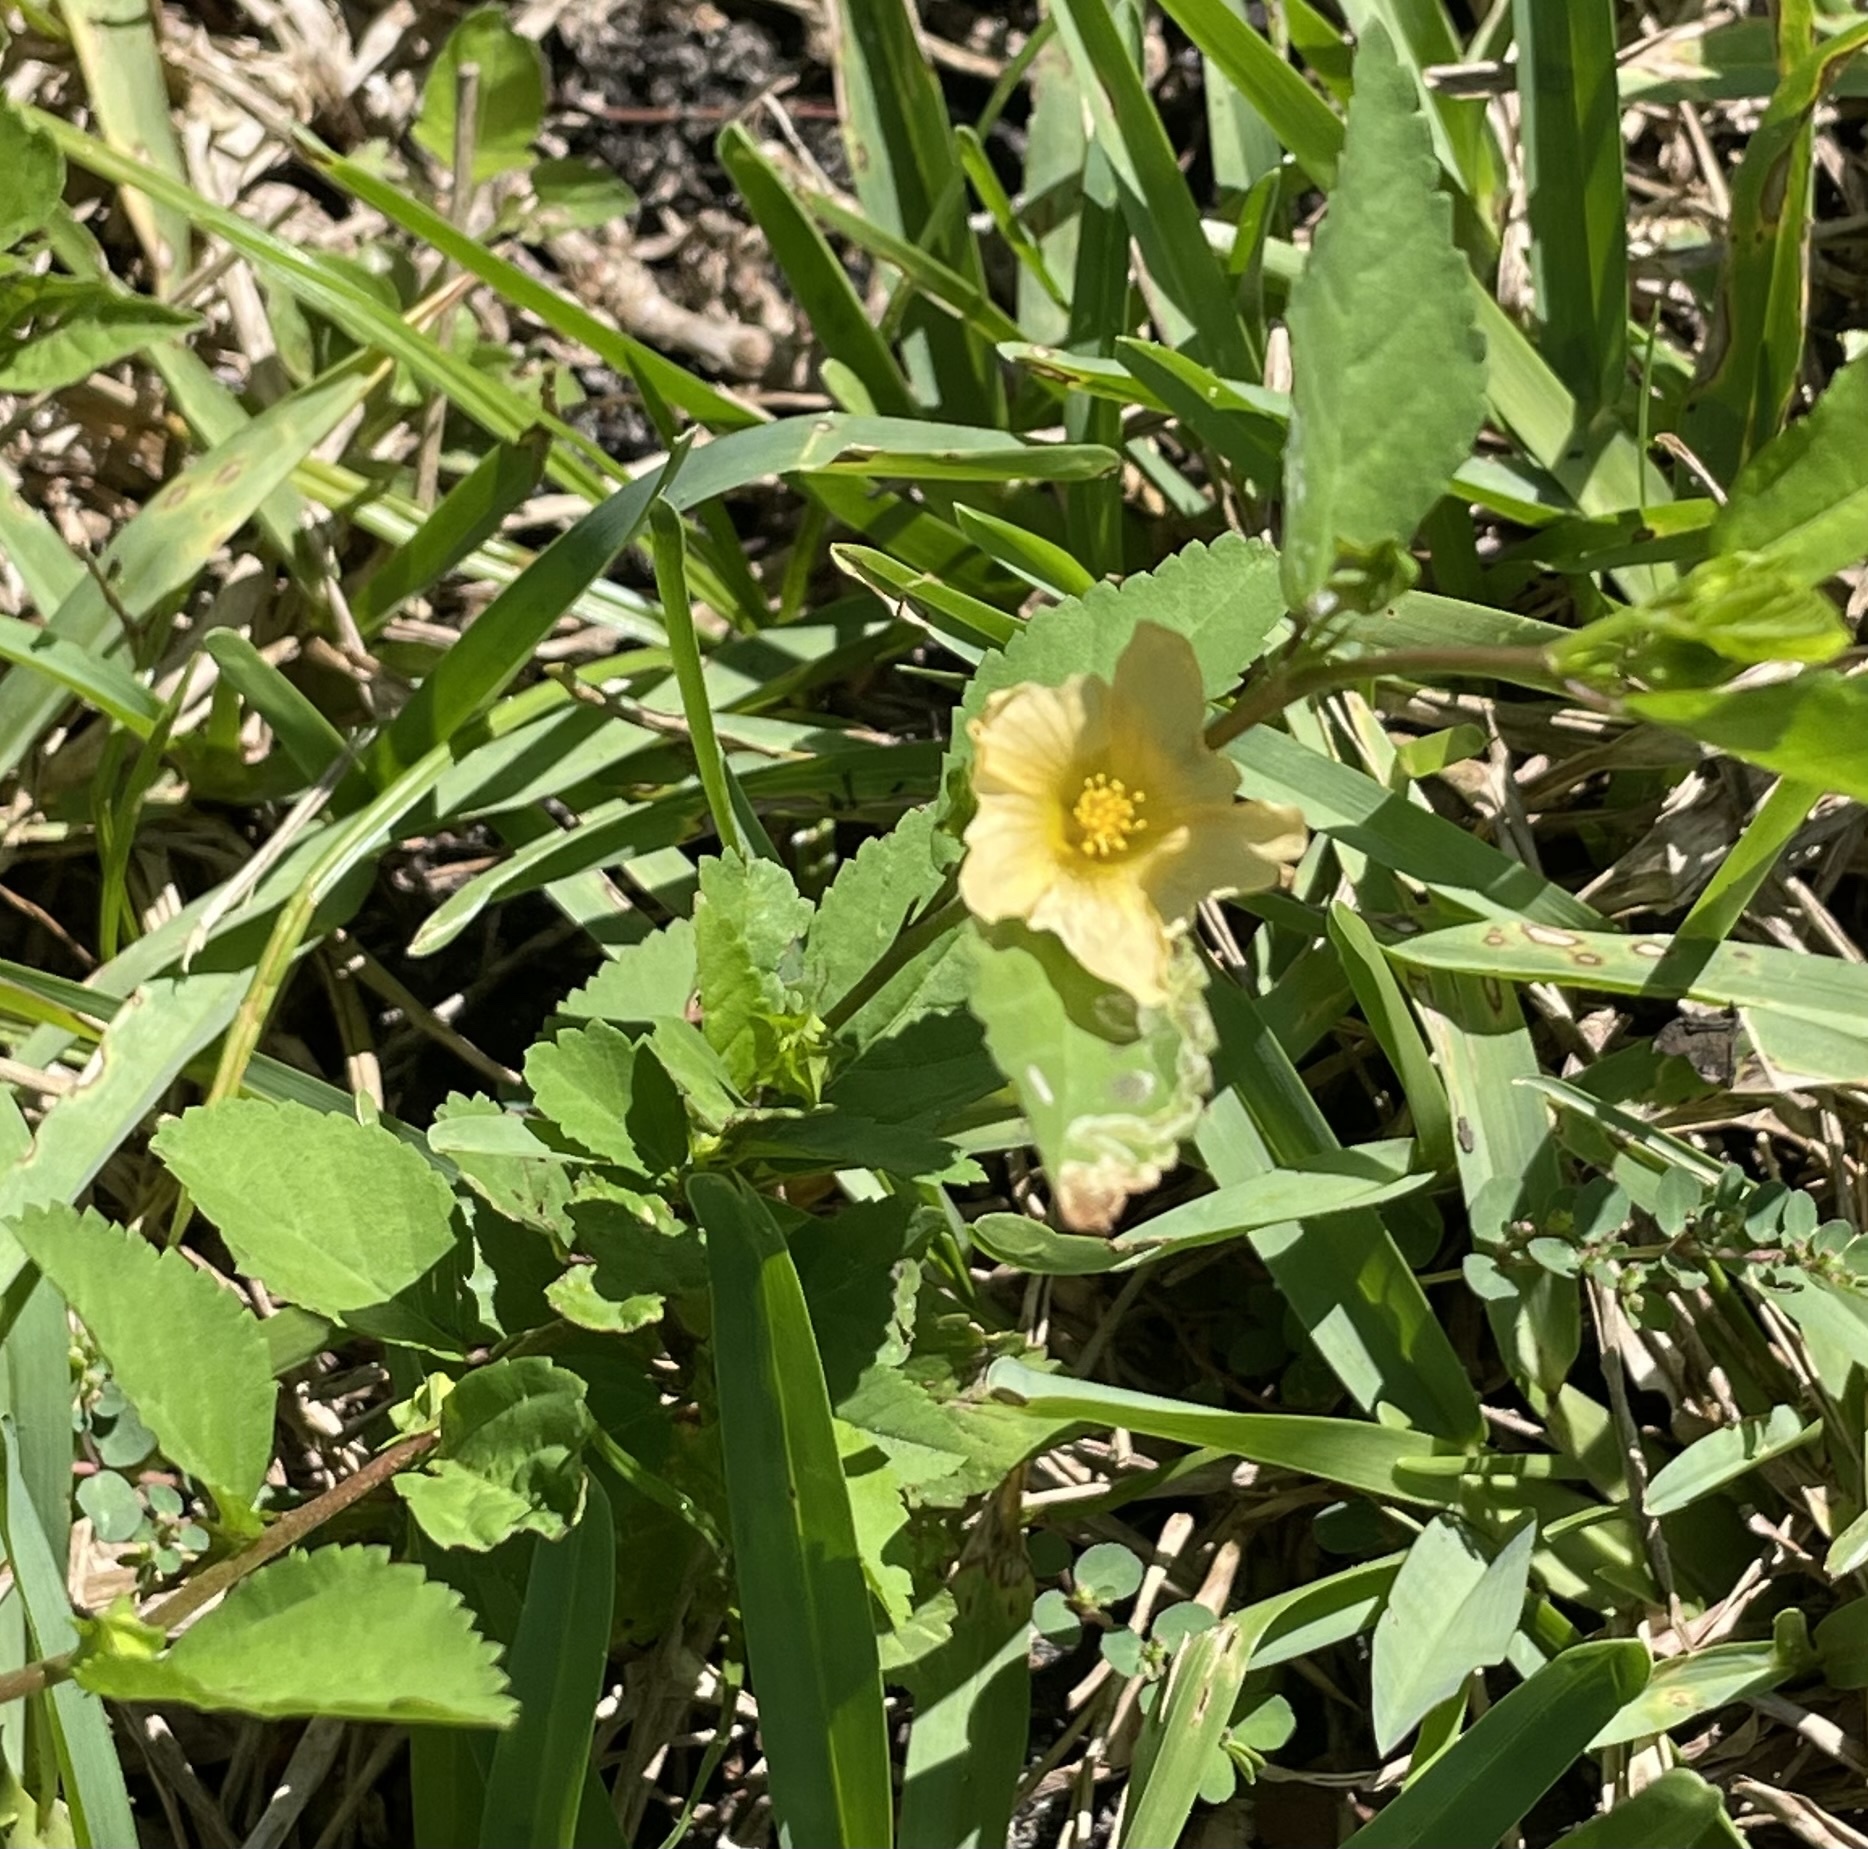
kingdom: Plantae
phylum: Tracheophyta
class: Magnoliopsida
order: Malvales
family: Malvaceae
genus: Sida
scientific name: Sida ulmifolia
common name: Broom weed
